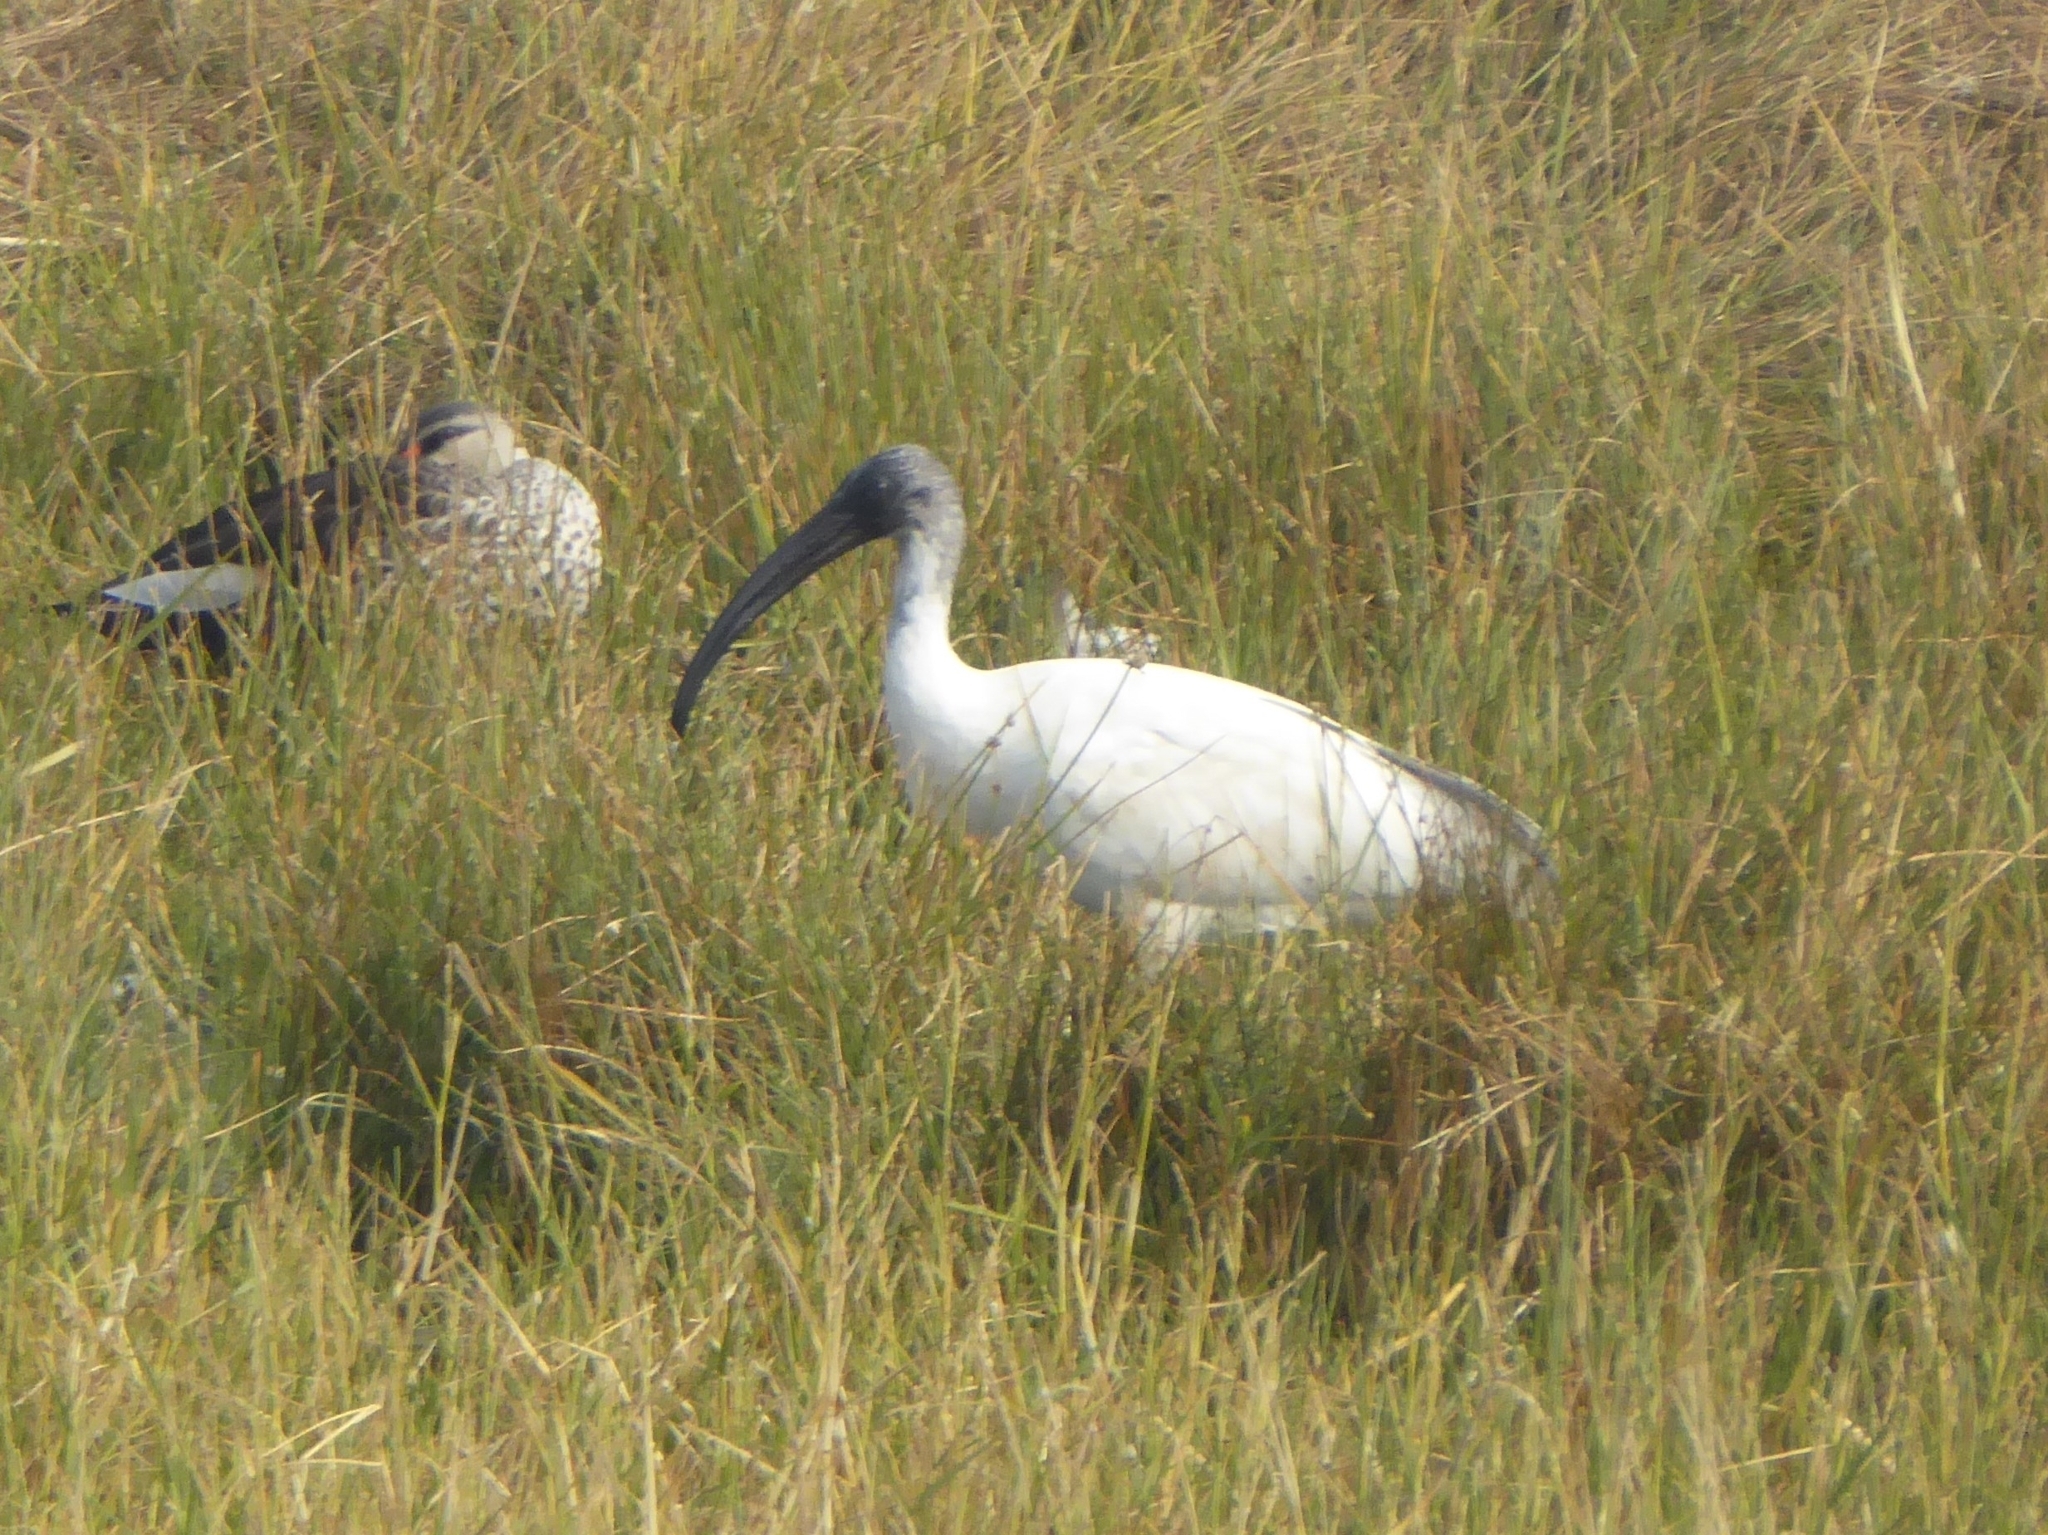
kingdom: Animalia
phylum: Chordata
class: Aves
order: Pelecaniformes
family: Threskiornithidae
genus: Threskiornis
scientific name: Threskiornis melanocephalus
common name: Black-headed ibis
